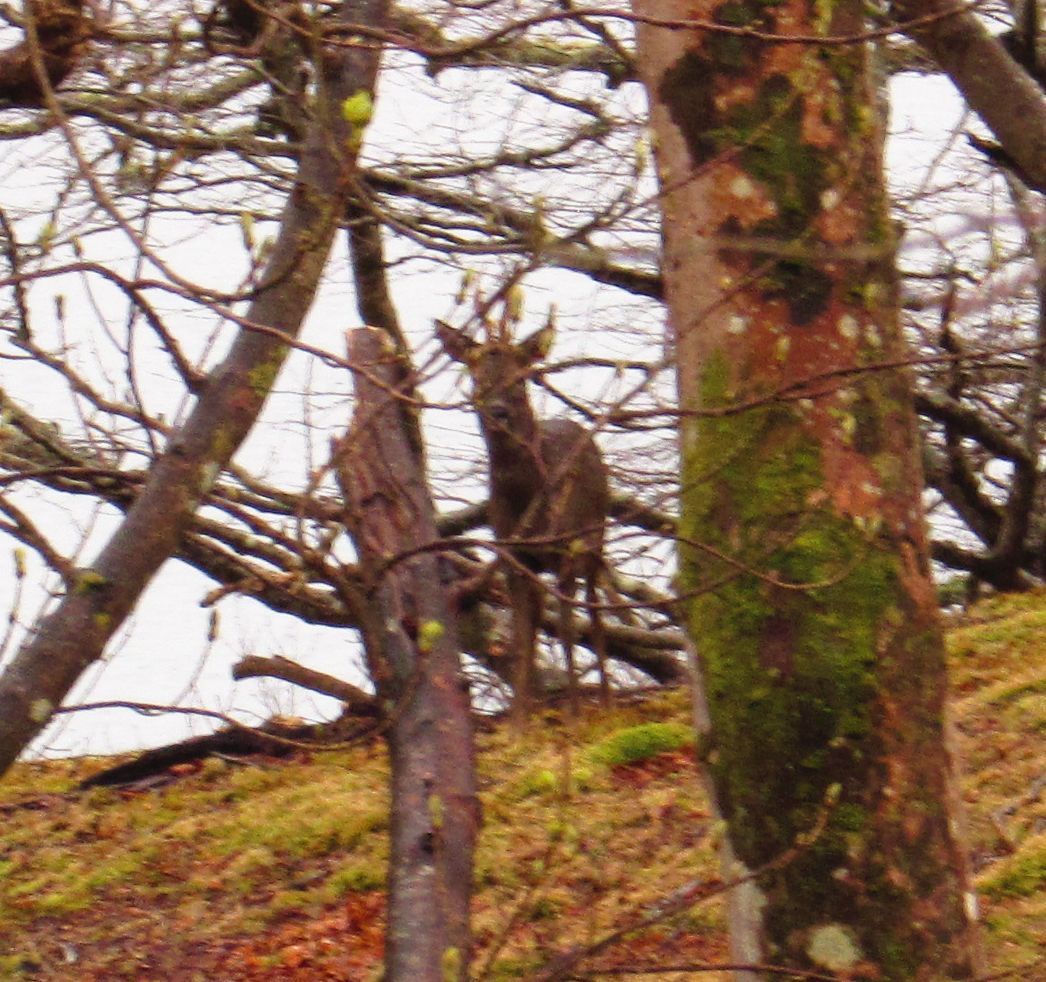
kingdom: Animalia
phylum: Chordata
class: Mammalia
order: Artiodactyla
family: Cervidae
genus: Capreolus
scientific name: Capreolus capreolus
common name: Western roe deer
